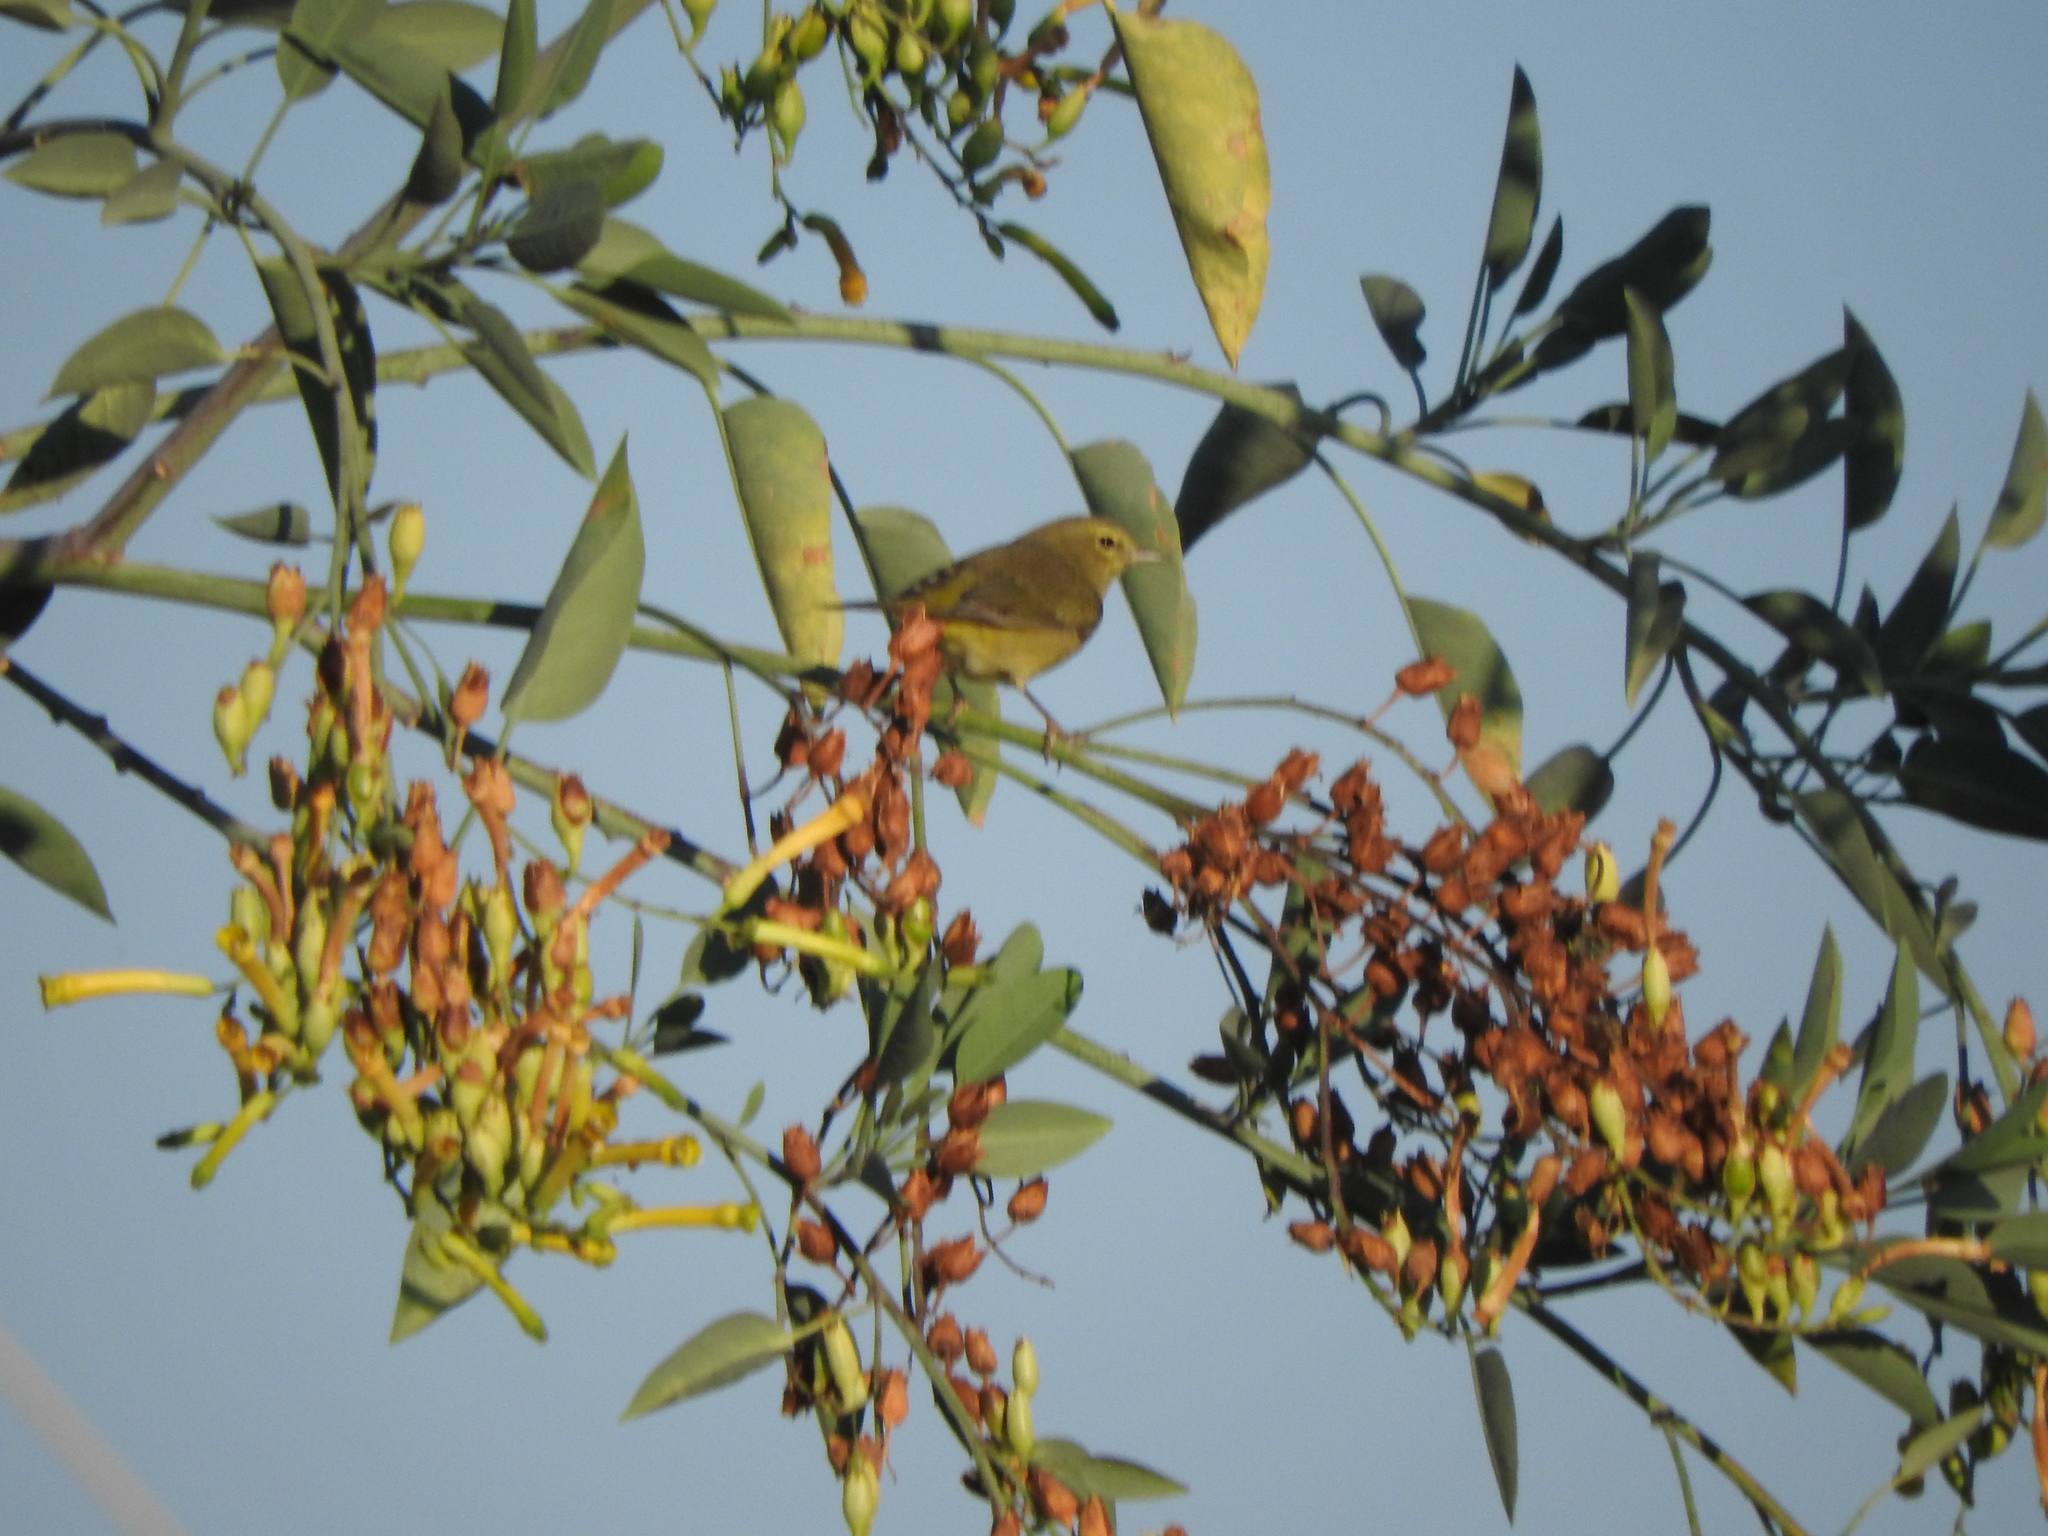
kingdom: Animalia
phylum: Chordata
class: Aves
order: Passeriformes
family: Parulidae
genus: Leiothlypis
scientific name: Leiothlypis celata
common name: Orange-crowned warbler
